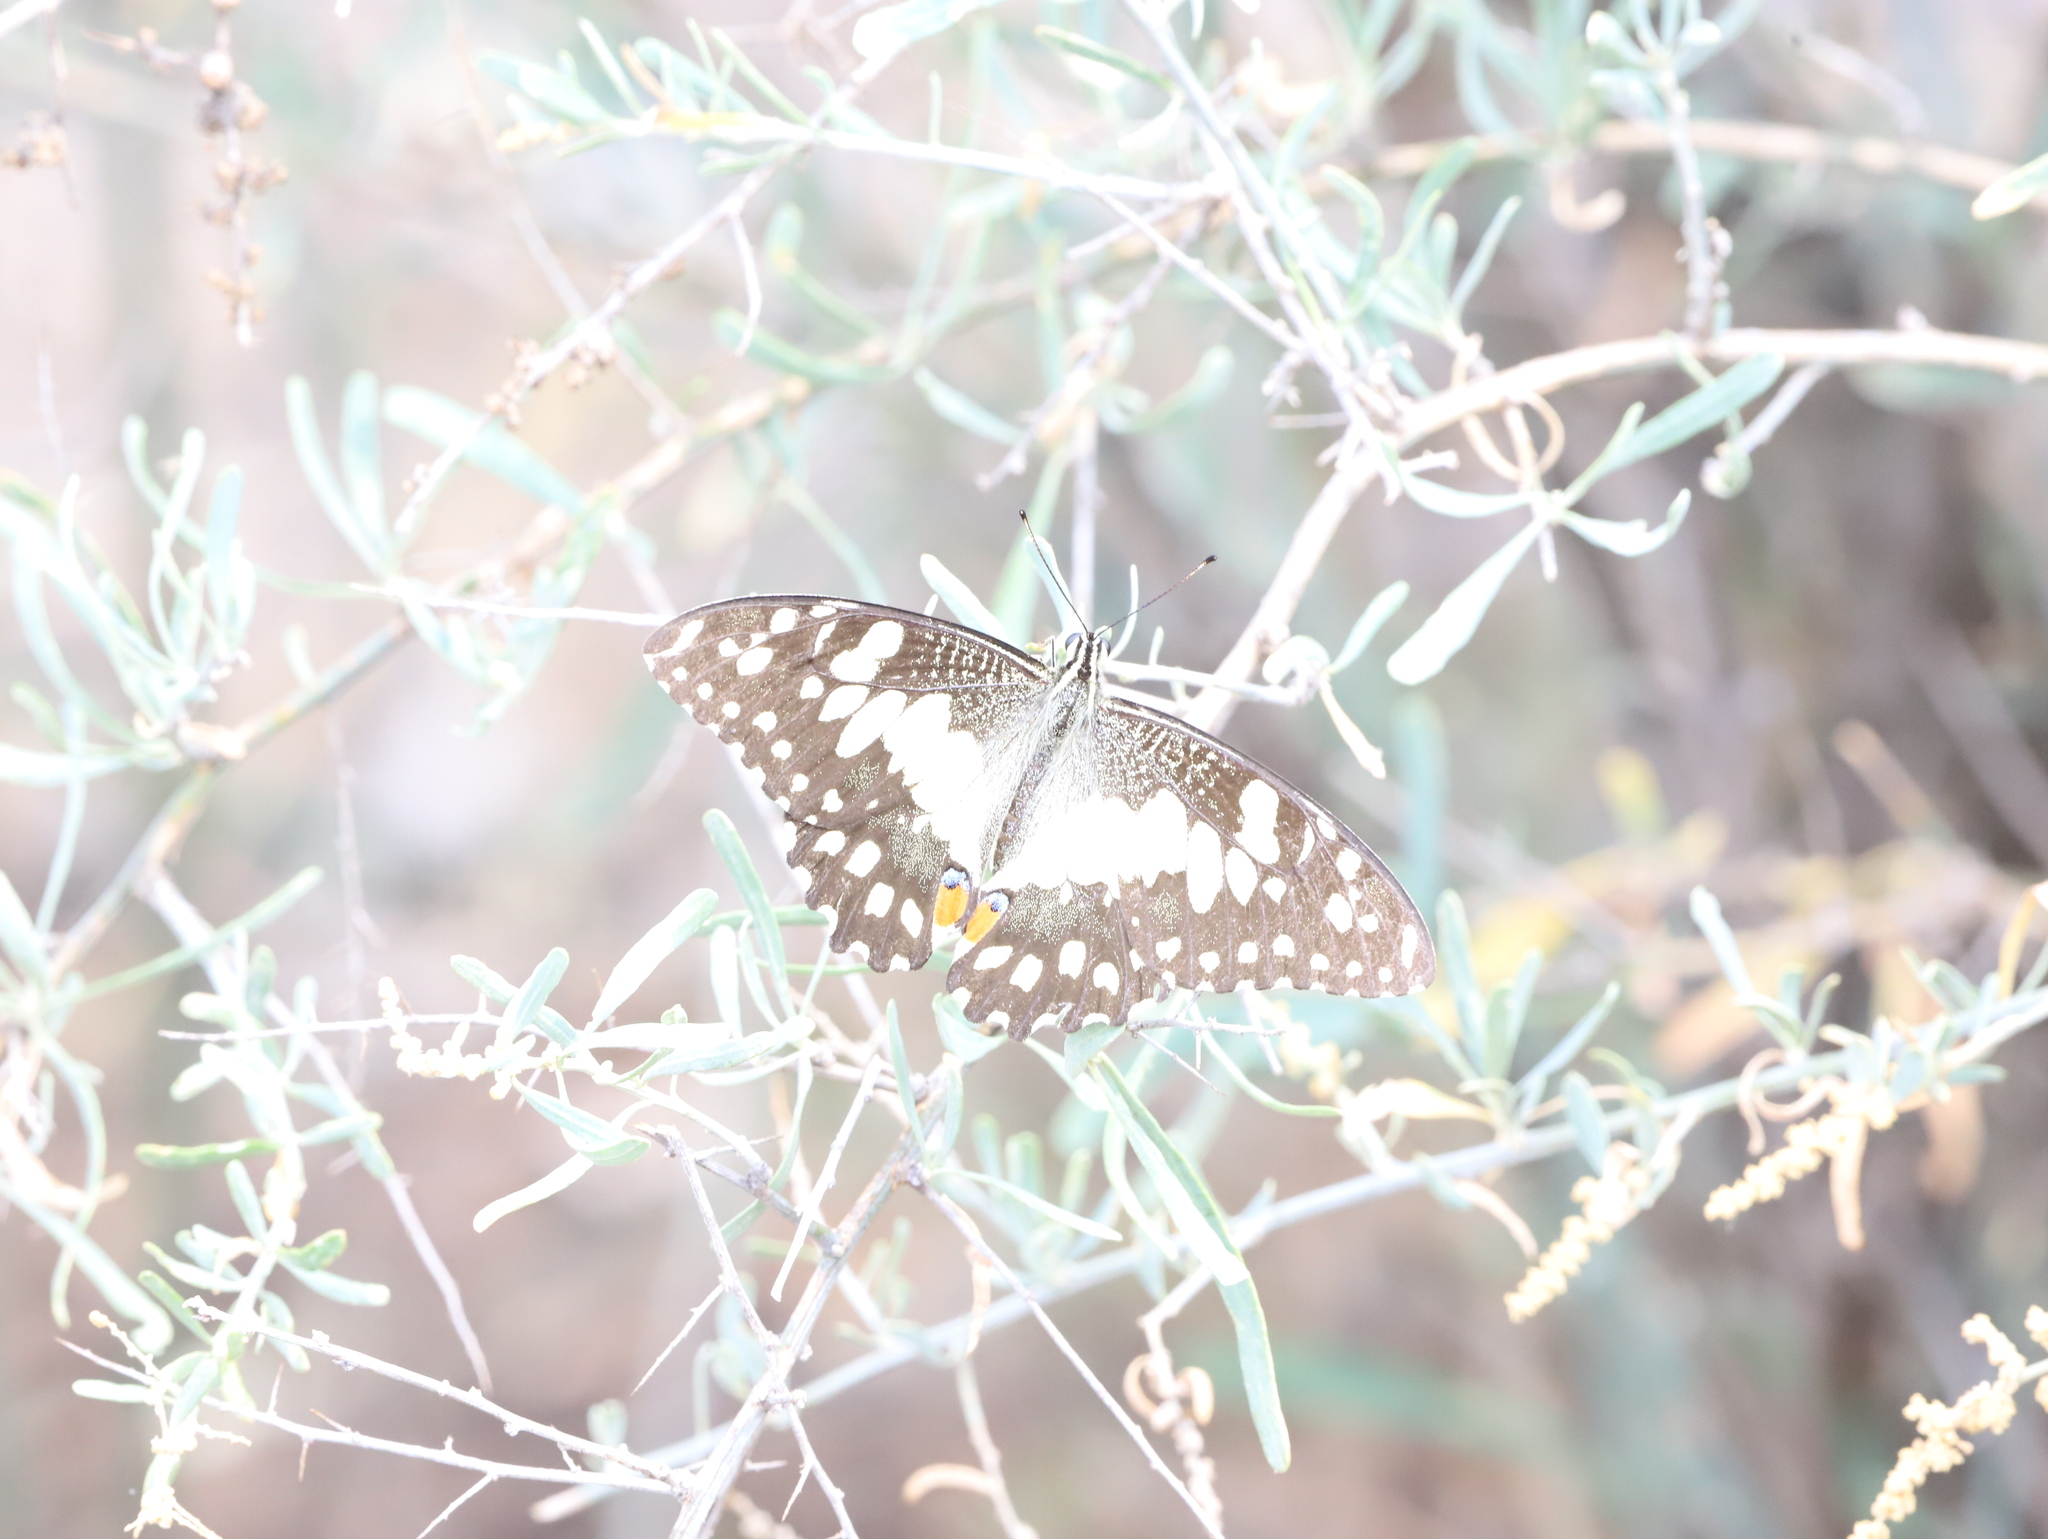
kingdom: Animalia
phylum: Arthropoda
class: Insecta
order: Lepidoptera
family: Papilionidae
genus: Papilio
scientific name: Papilio demoleus
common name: Lime butterfly
